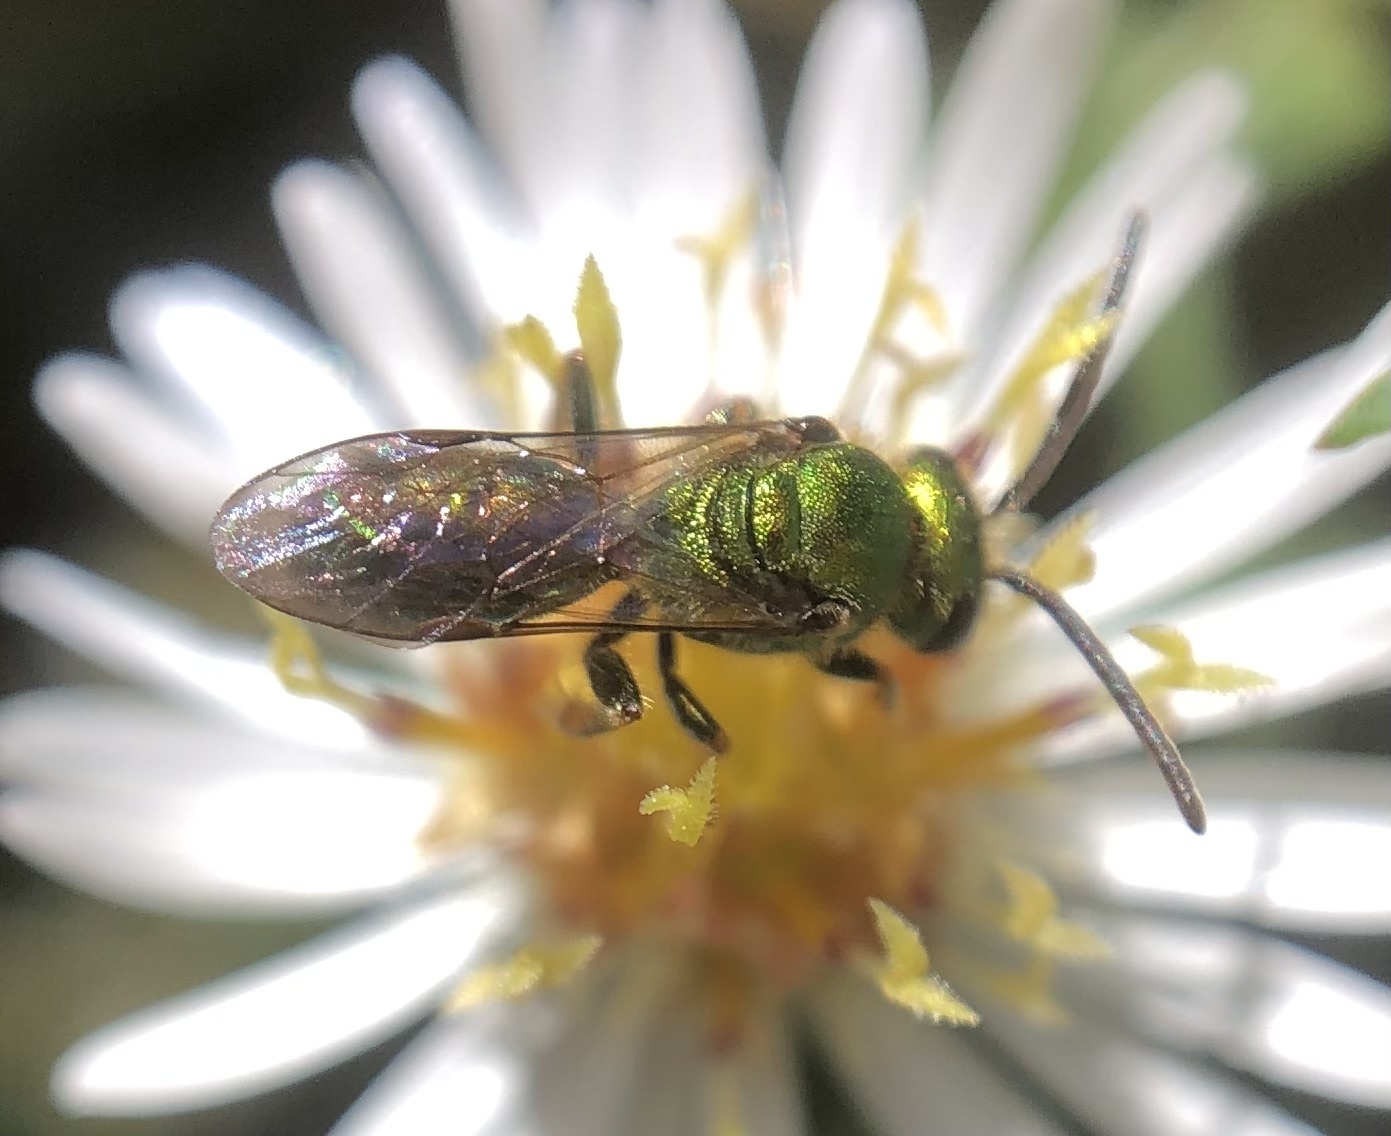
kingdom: Animalia
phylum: Arthropoda
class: Insecta
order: Hymenoptera
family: Halictidae
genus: Augochlora
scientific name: Augochlora pura
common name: Pure green sweat bee
